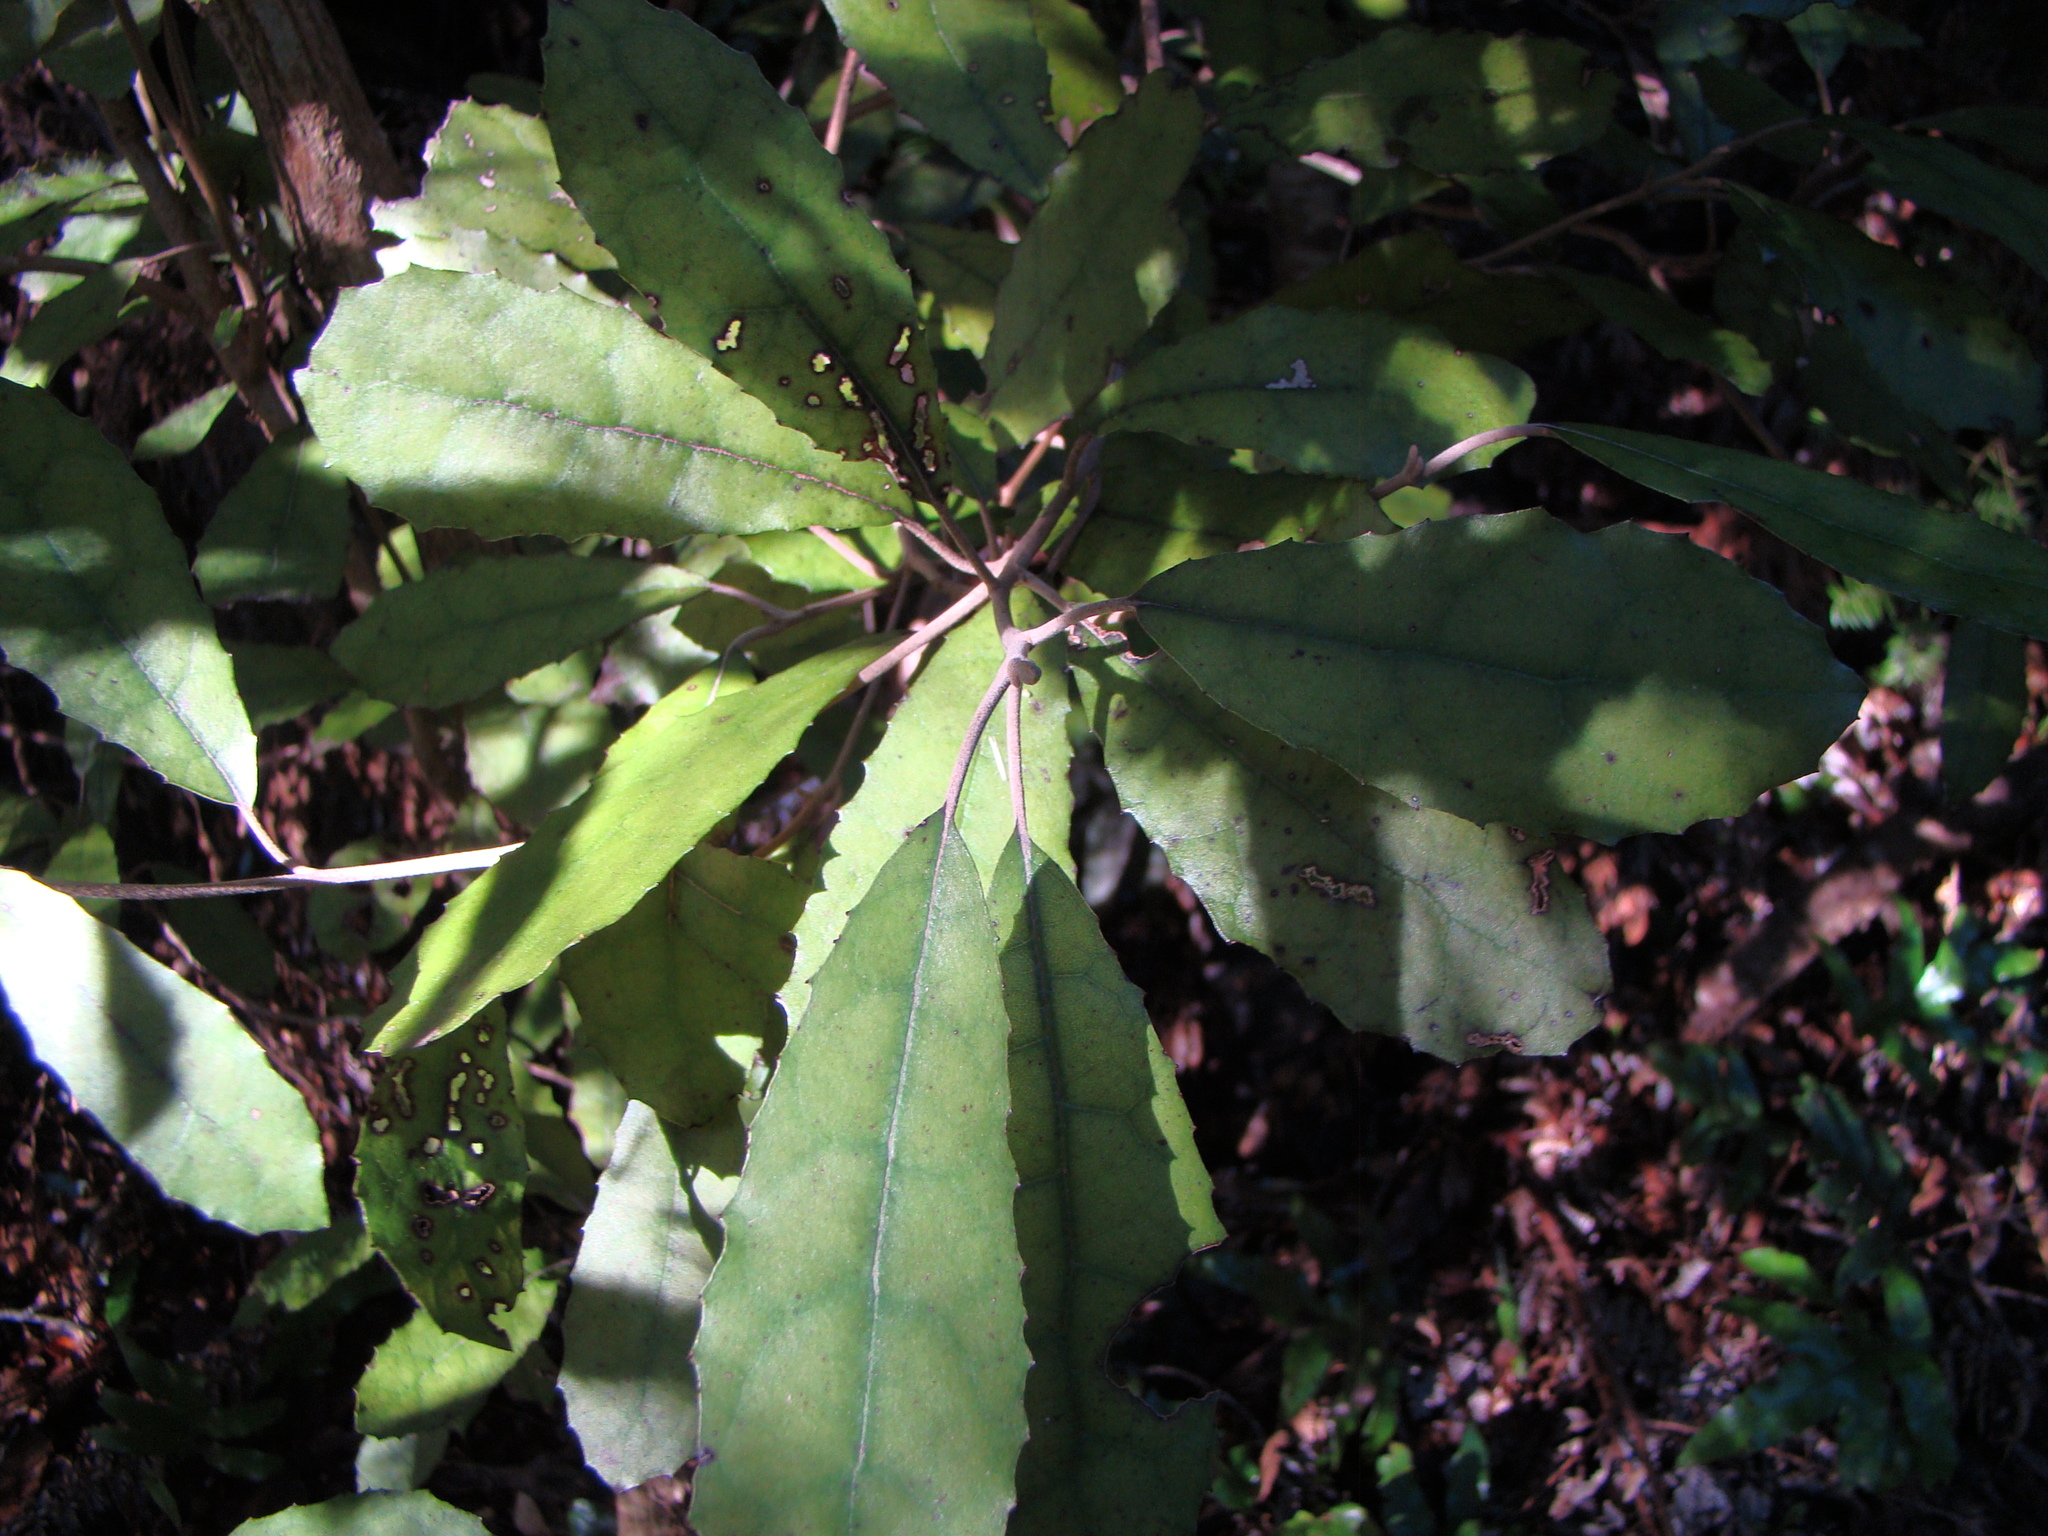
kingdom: Plantae
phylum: Tracheophyta
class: Magnoliopsida
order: Asterales
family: Asteraceae
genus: Olearia
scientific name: Olearia rani
